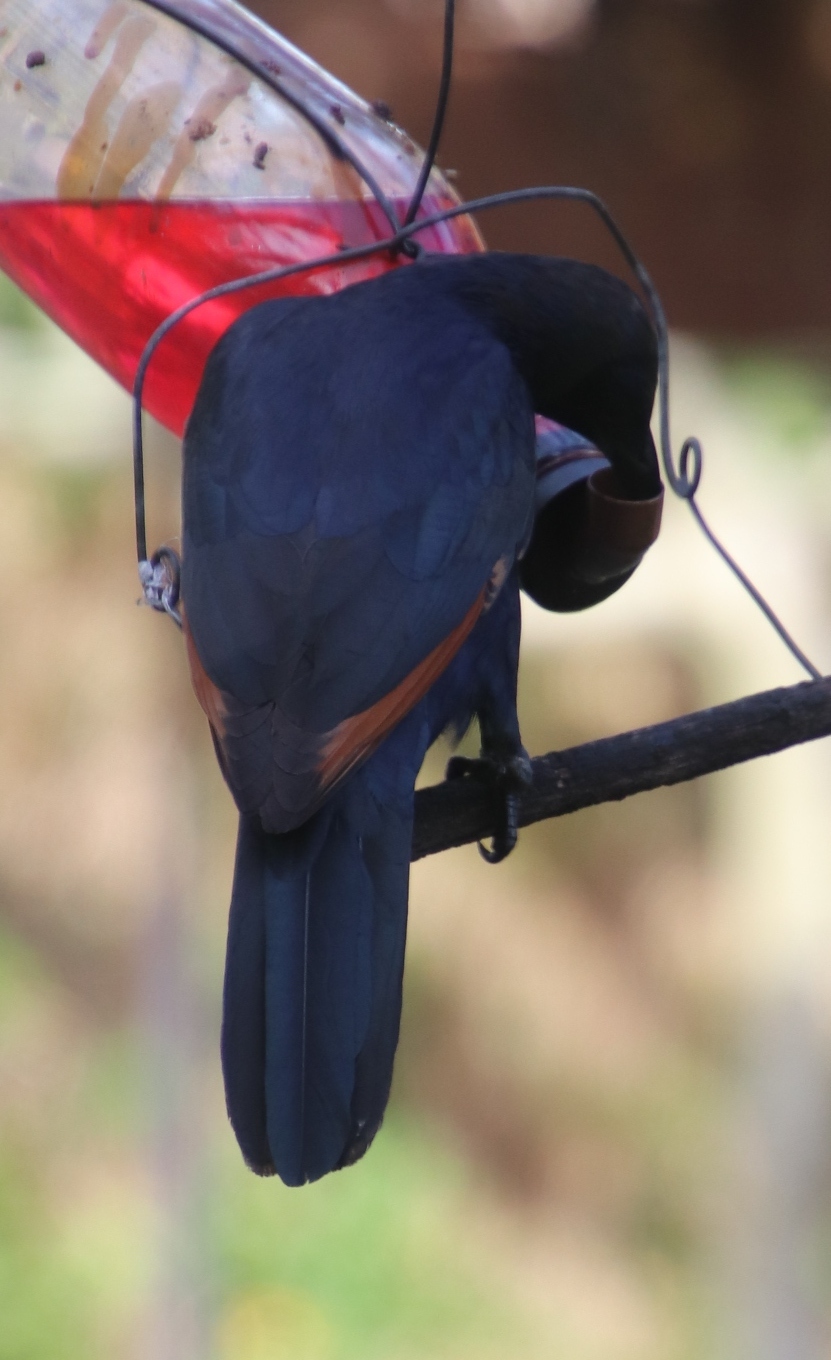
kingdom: Animalia
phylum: Chordata
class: Aves
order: Passeriformes
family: Sturnidae
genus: Onychognathus
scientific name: Onychognathus morio
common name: Red-winged starling
